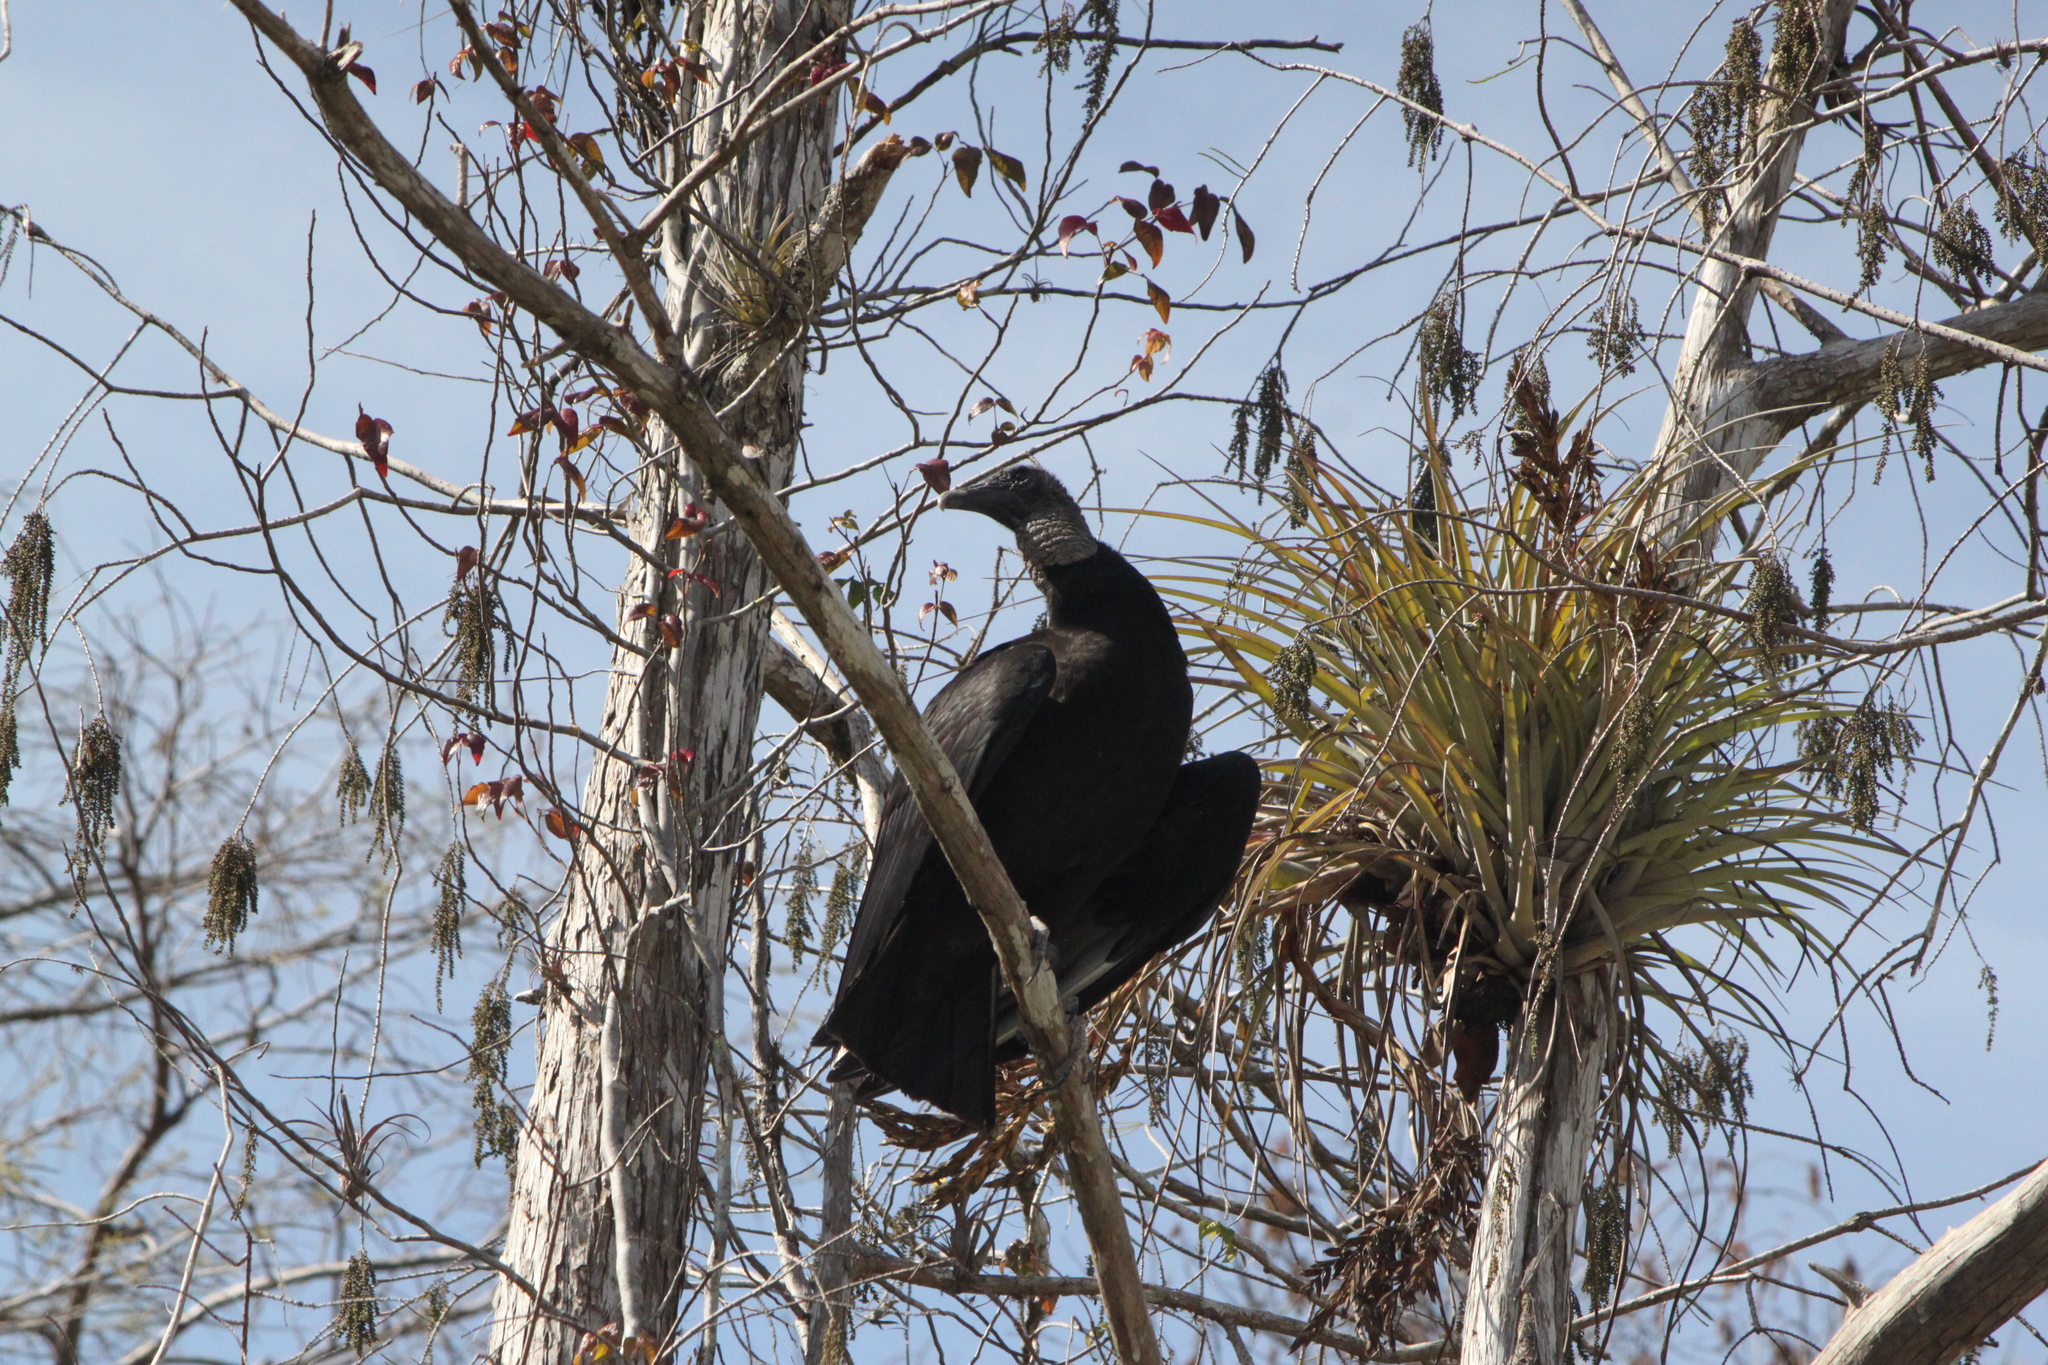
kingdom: Animalia
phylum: Chordata
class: Aves
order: Accipitriformes
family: Cathartidae
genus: Coragyps
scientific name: Coragyps atratus
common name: Black vulture
